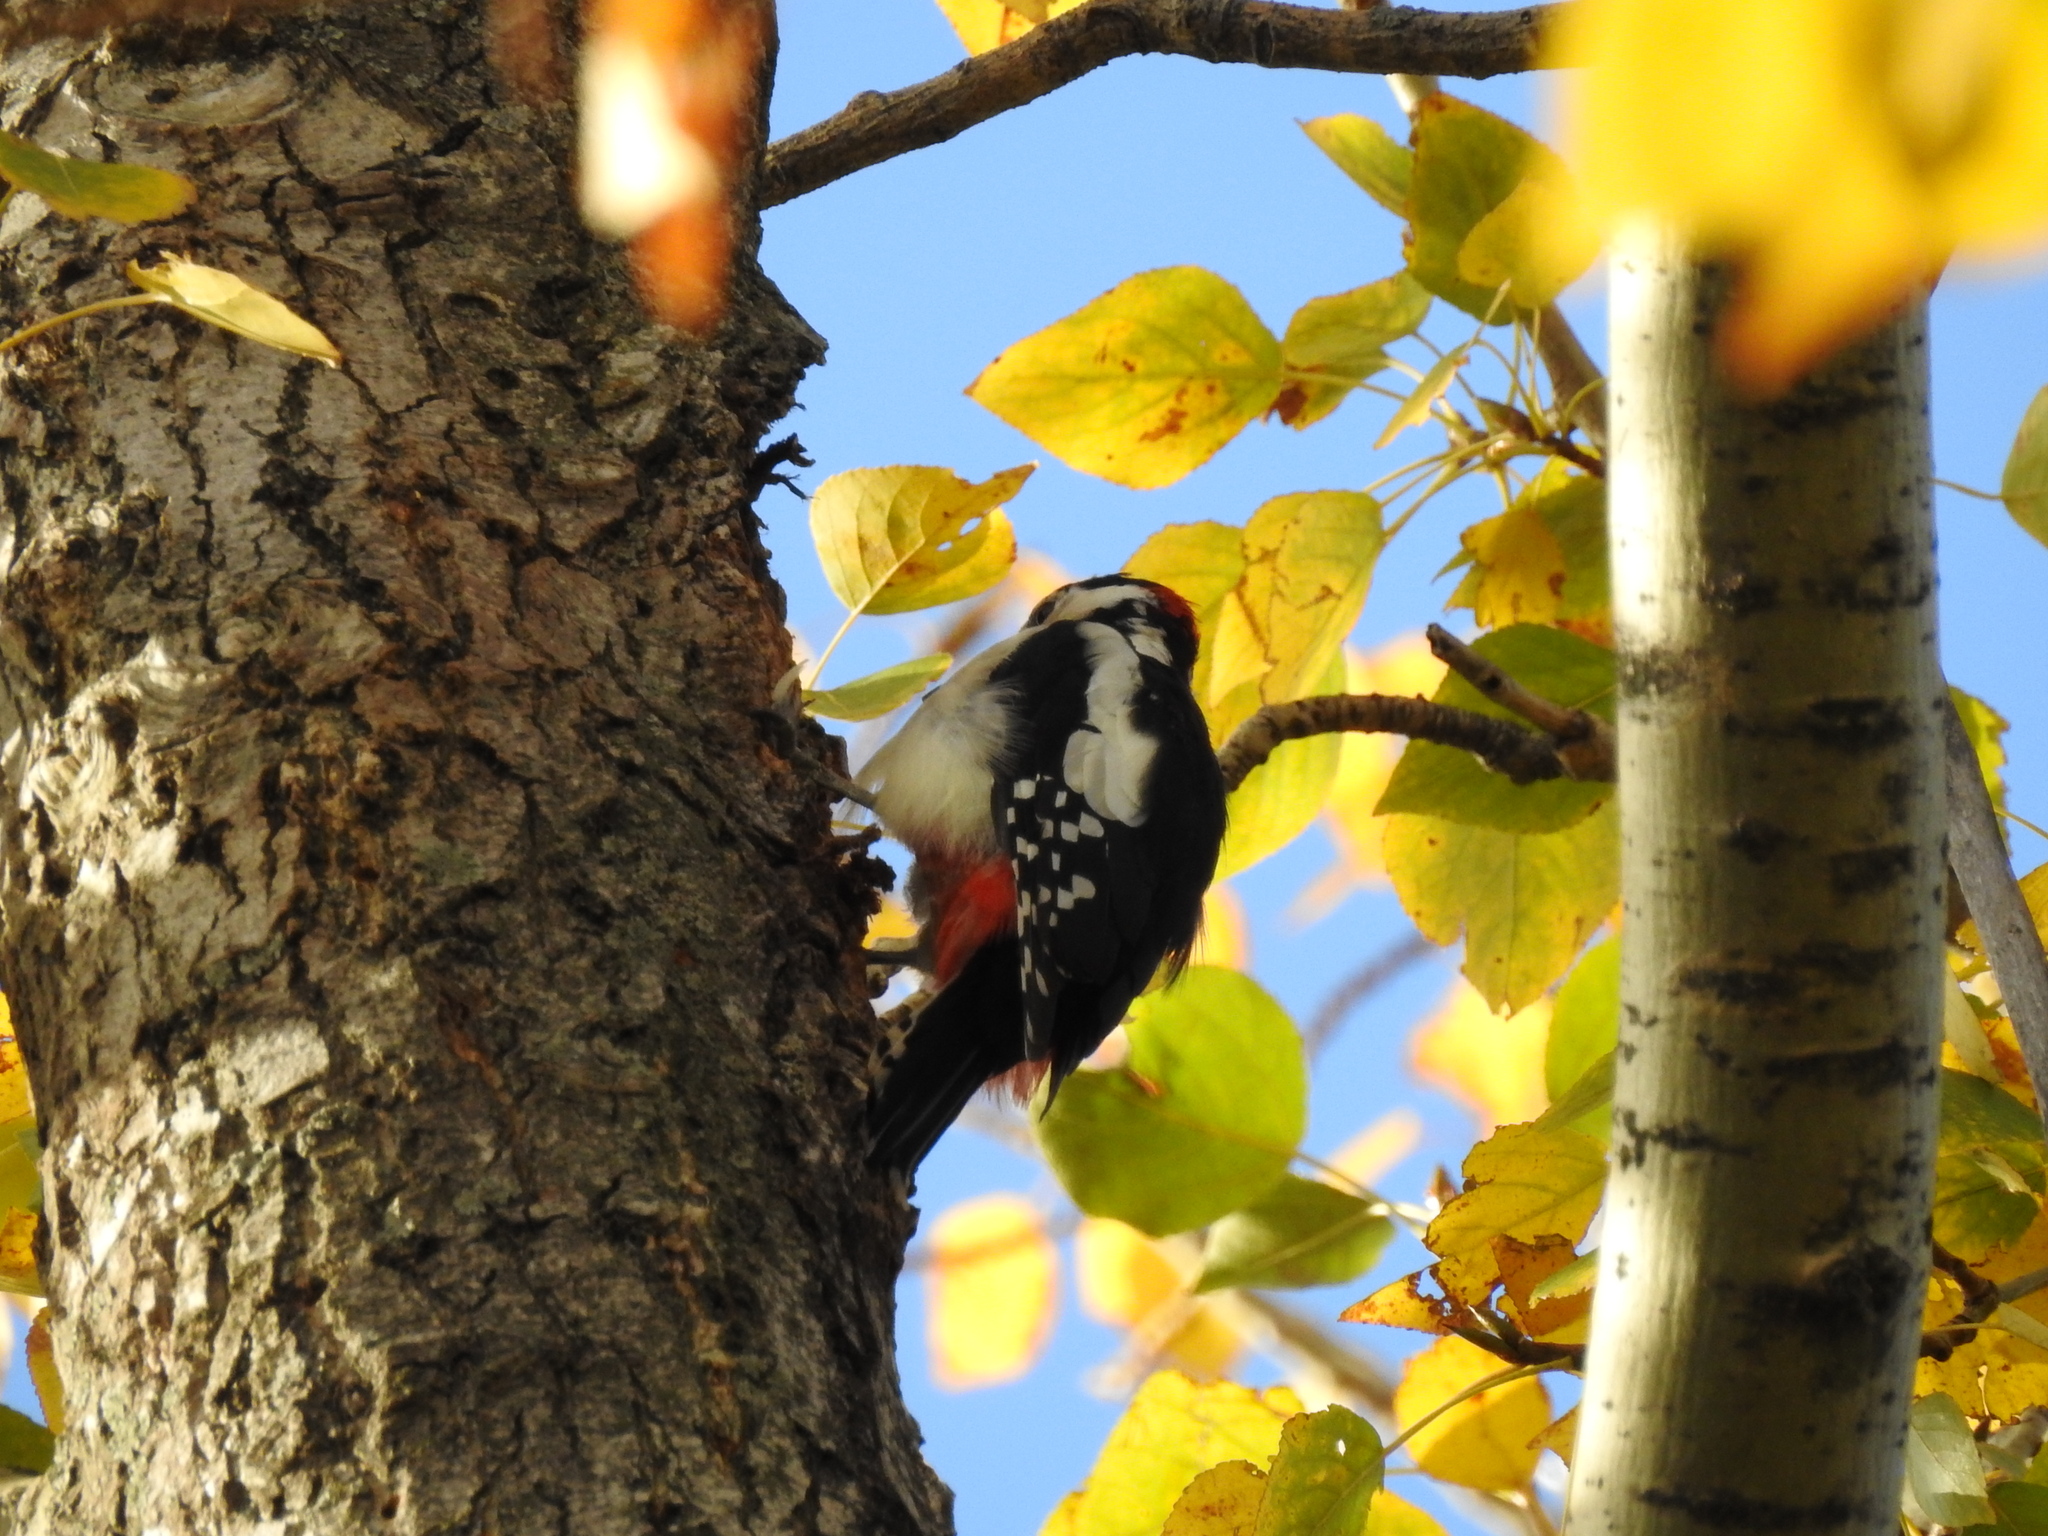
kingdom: Animalia
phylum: Chordata
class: Aves
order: Piciformes
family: Picidae
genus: Dendrocopos
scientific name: Dendrocopos major
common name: Great spotted woodpecker
